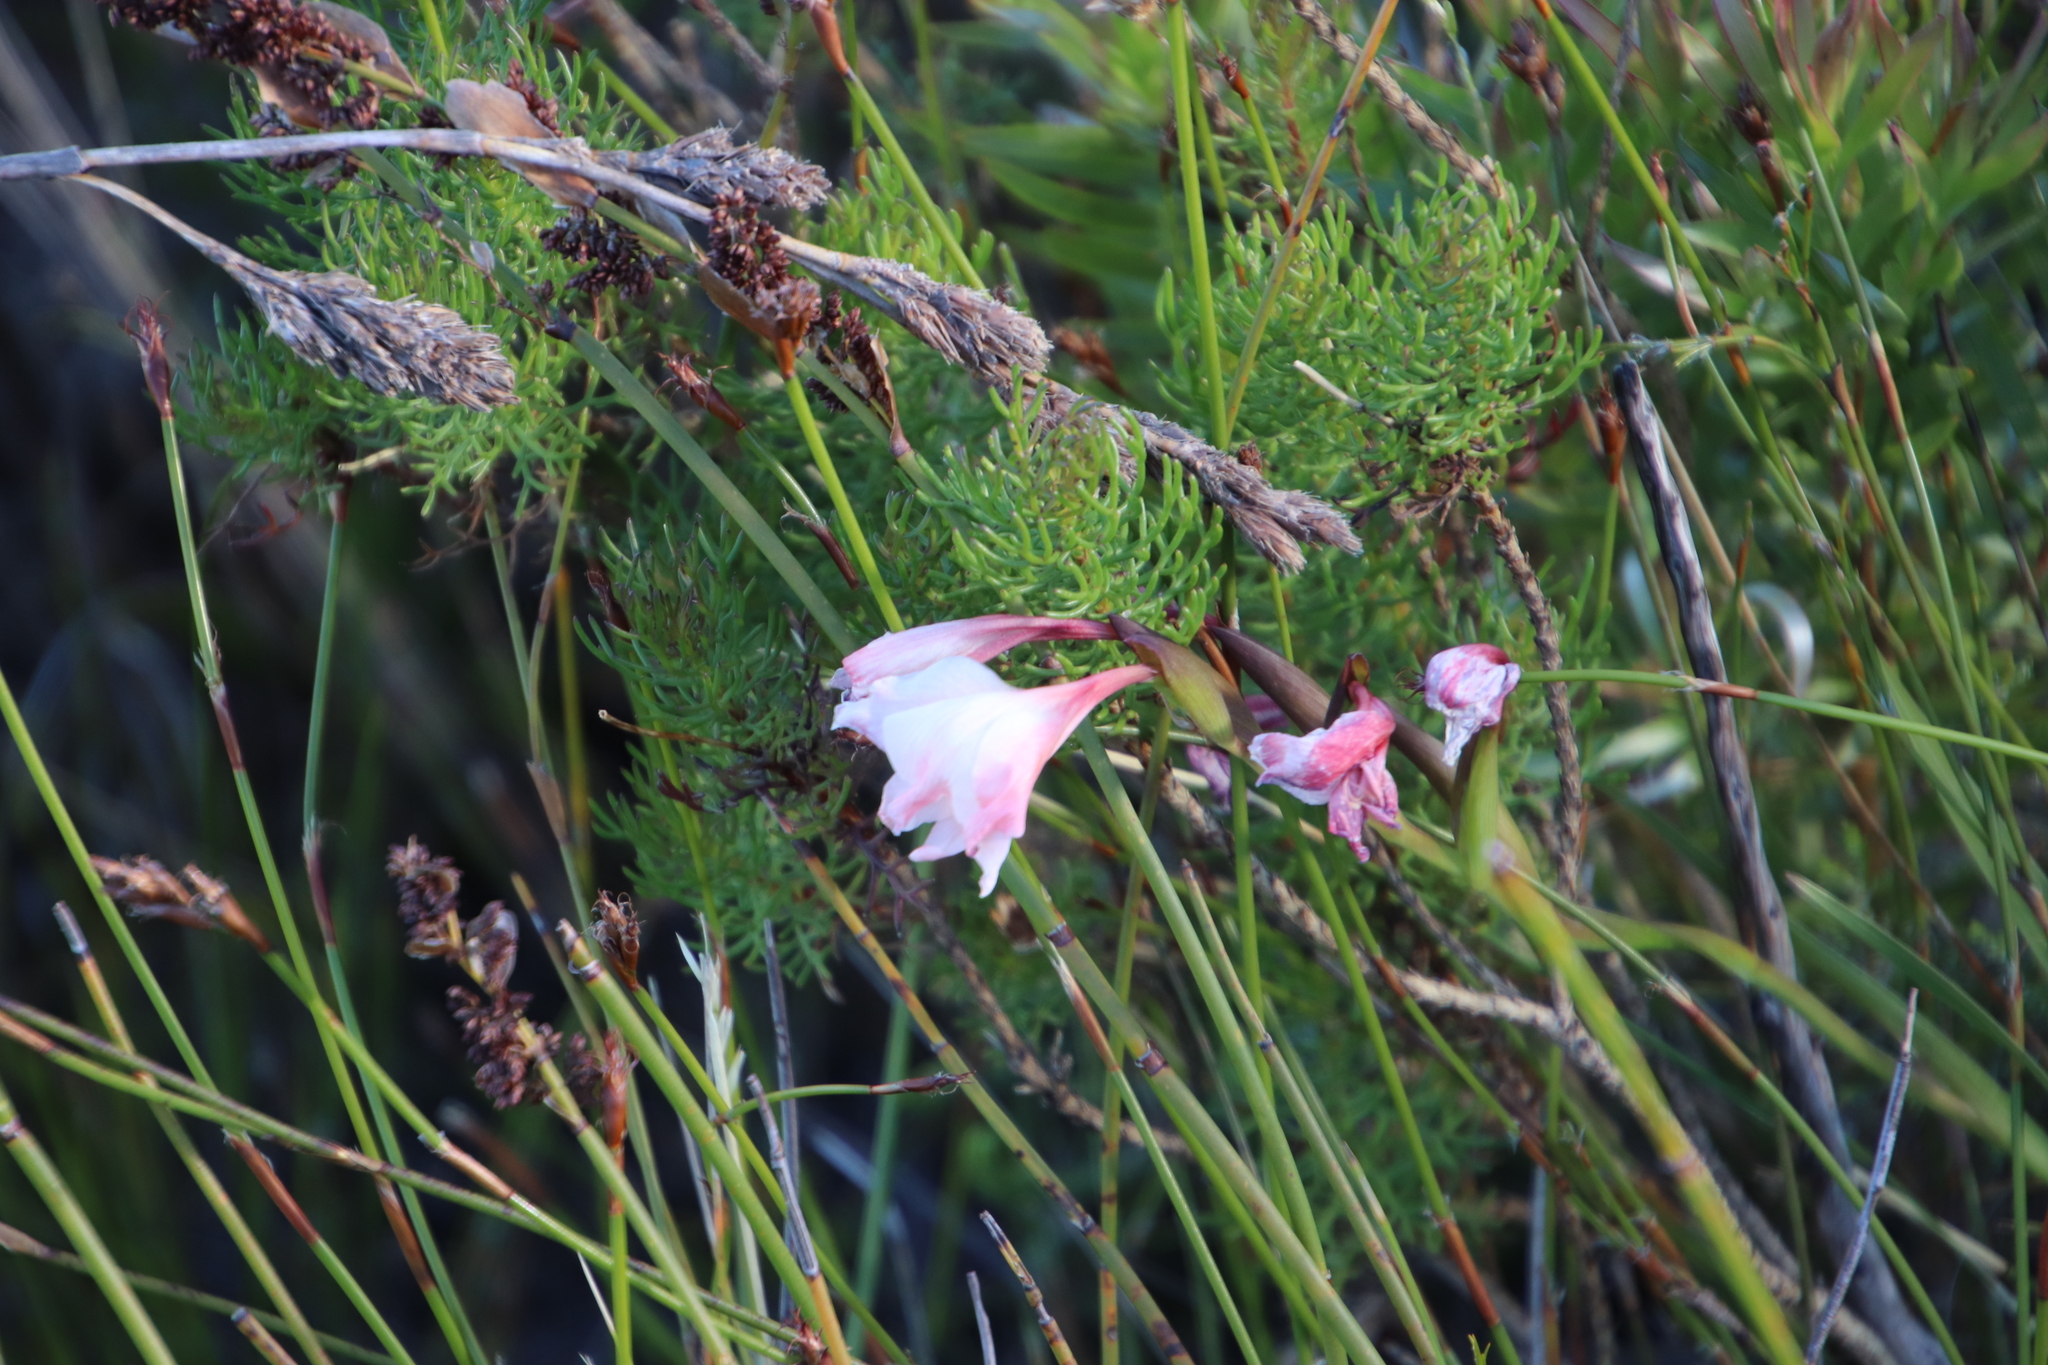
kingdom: Plantae
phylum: Tracheophyta
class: Liliopsida
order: Asparagales
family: Iridaceae
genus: Gladiolus
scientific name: Gladiolus carneus
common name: Painted-lady
